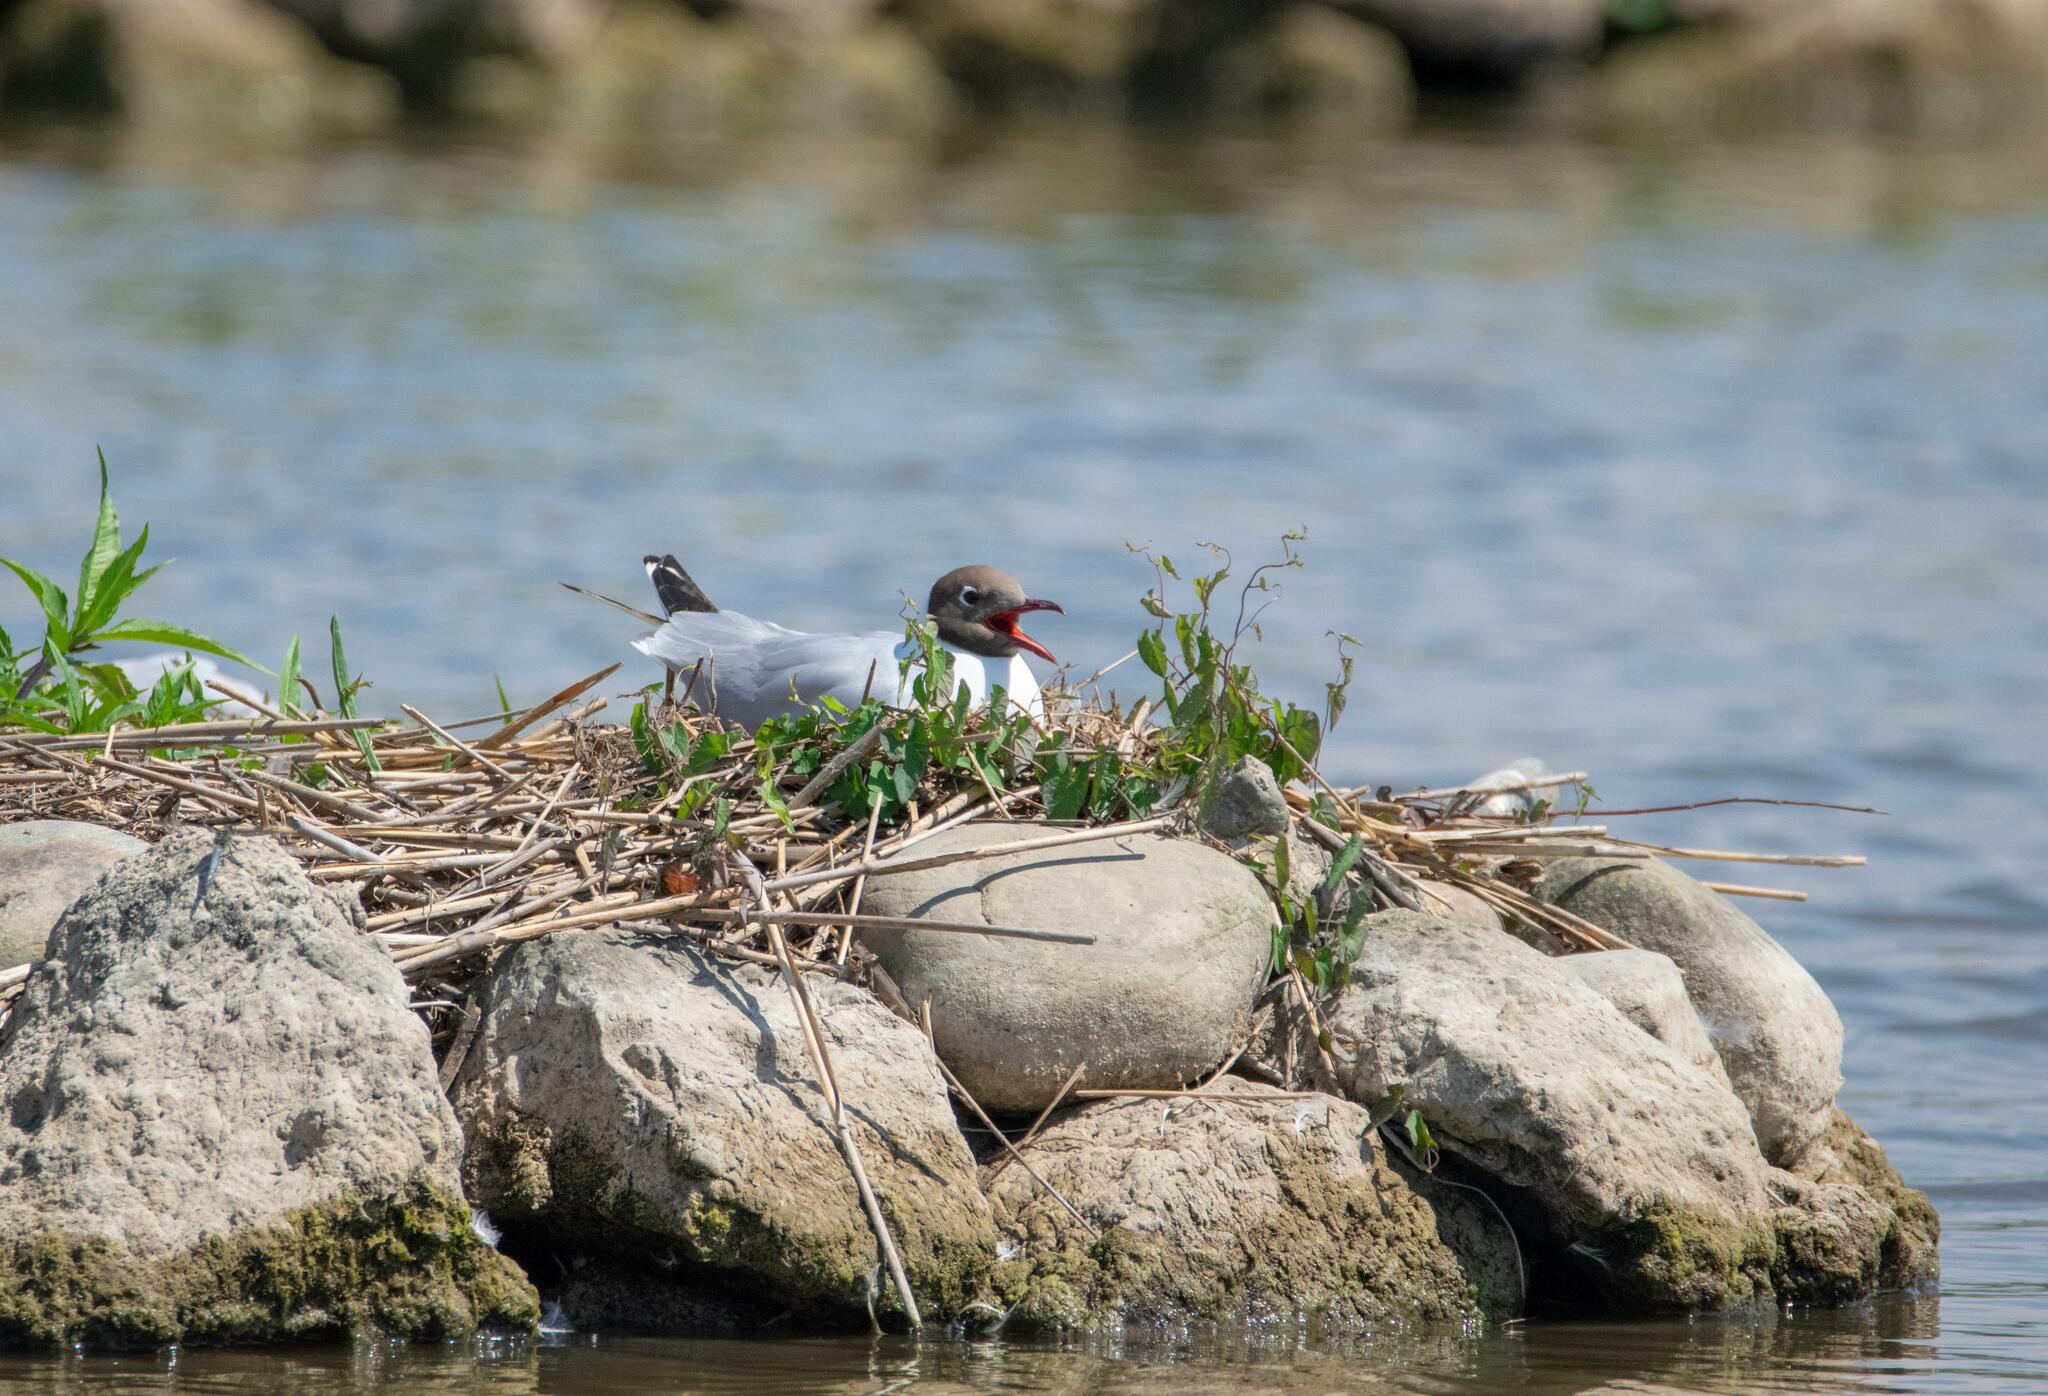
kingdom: Animalia
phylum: Chordata
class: Aves
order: Charadriiformes
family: Laridae
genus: Chroicocephalus
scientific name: Chroicocephalus ridibundus
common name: Black-headed gull
